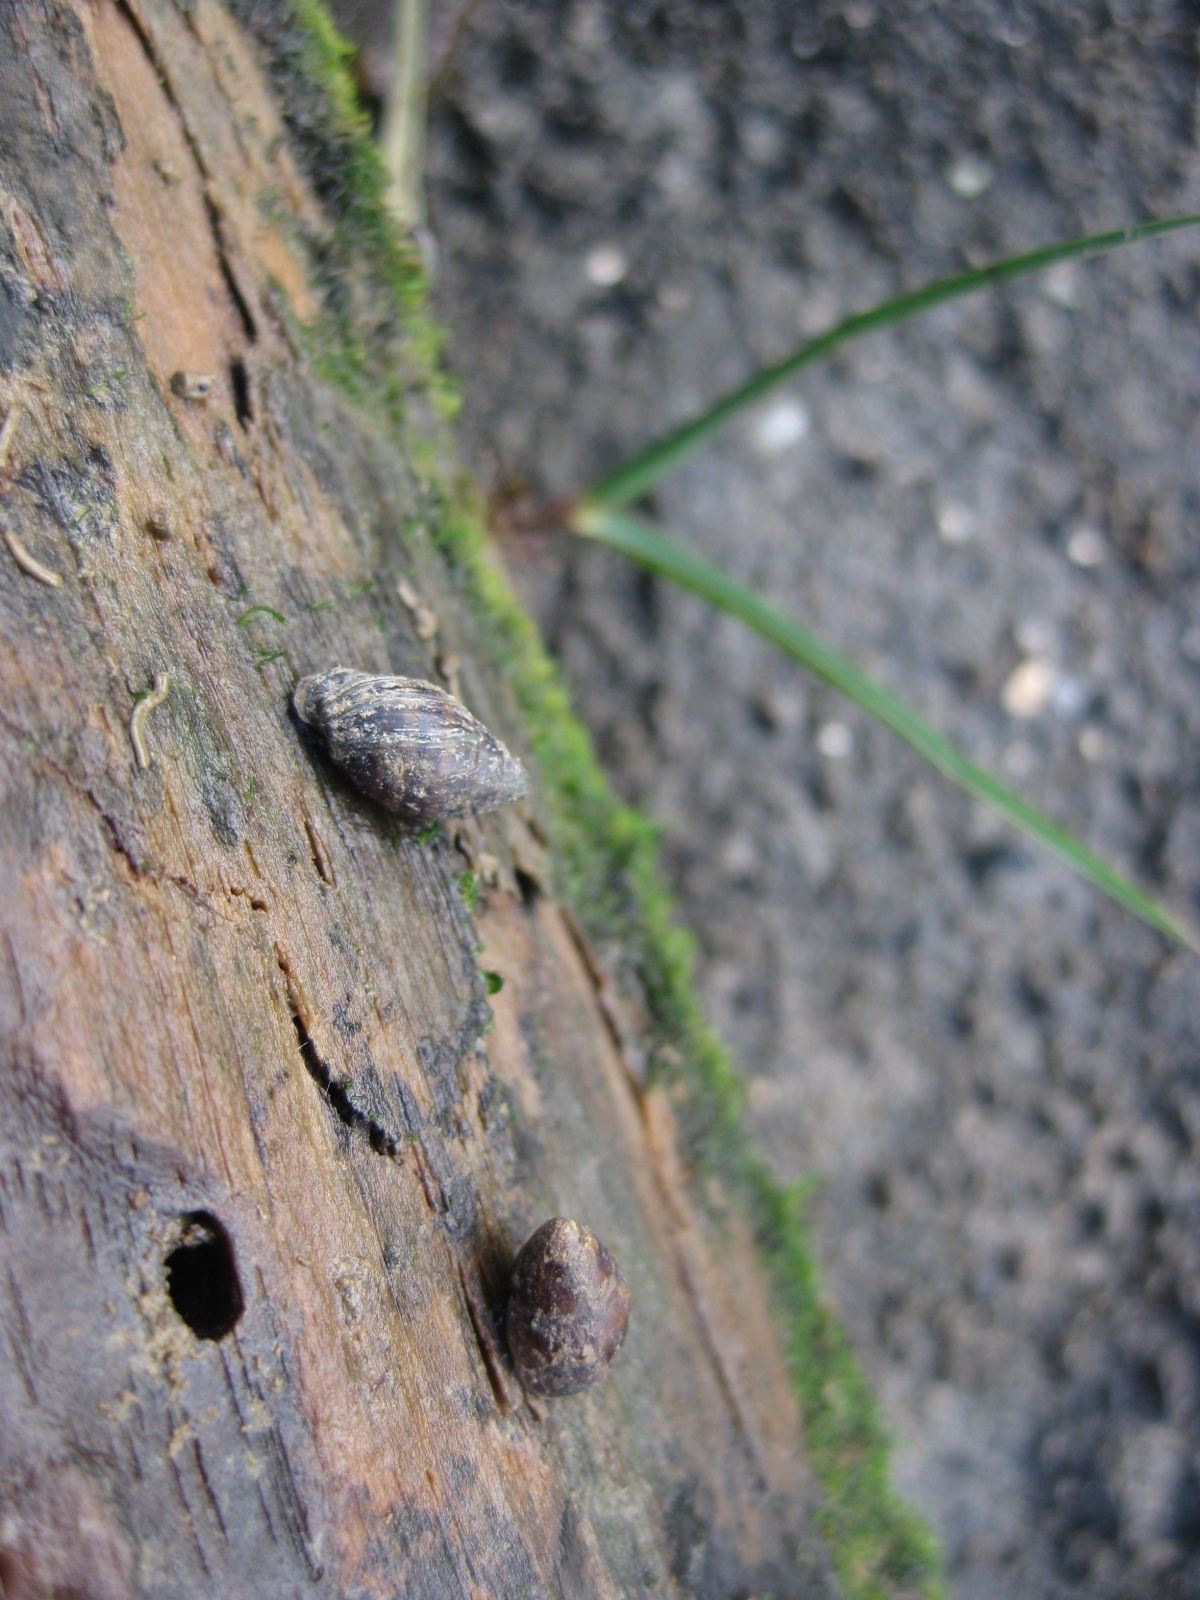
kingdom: Animalia
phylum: Mollusca
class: Gastropoda
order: Ellobiida
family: Ellobiidae
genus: Pleuroloba
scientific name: Pleuroloba costellaris
